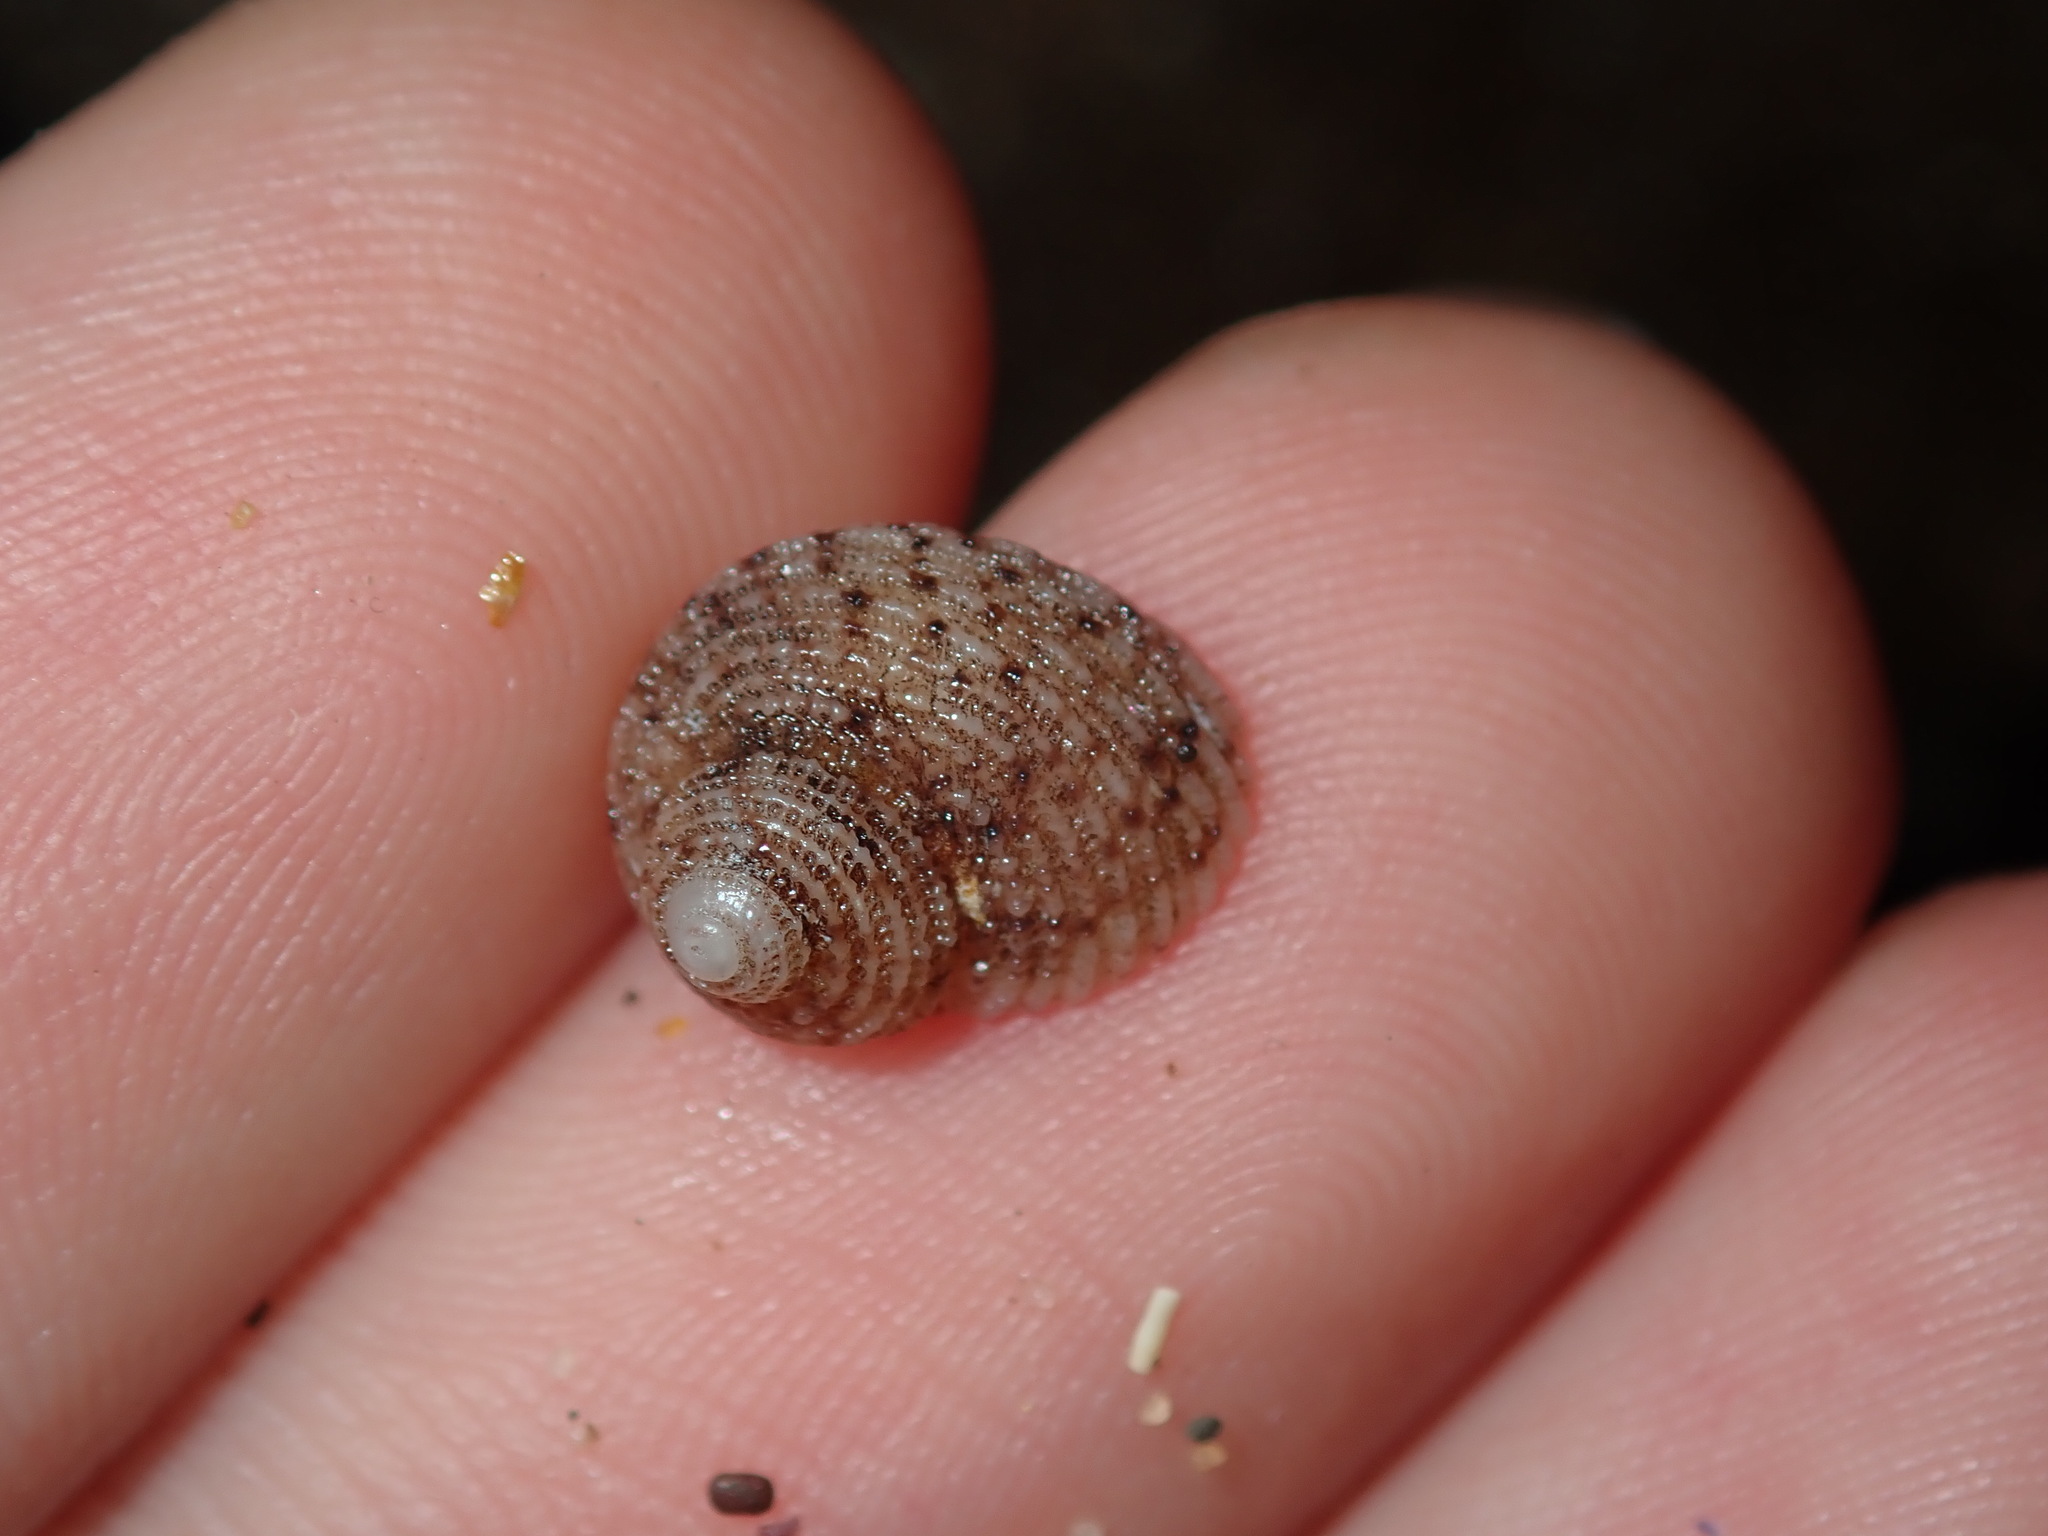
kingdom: Animalia
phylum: Mollusca
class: Gastropoda
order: Seguenziida
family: Chilodontaidae
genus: Herpetopoma
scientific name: Herpetopoma aspersum
